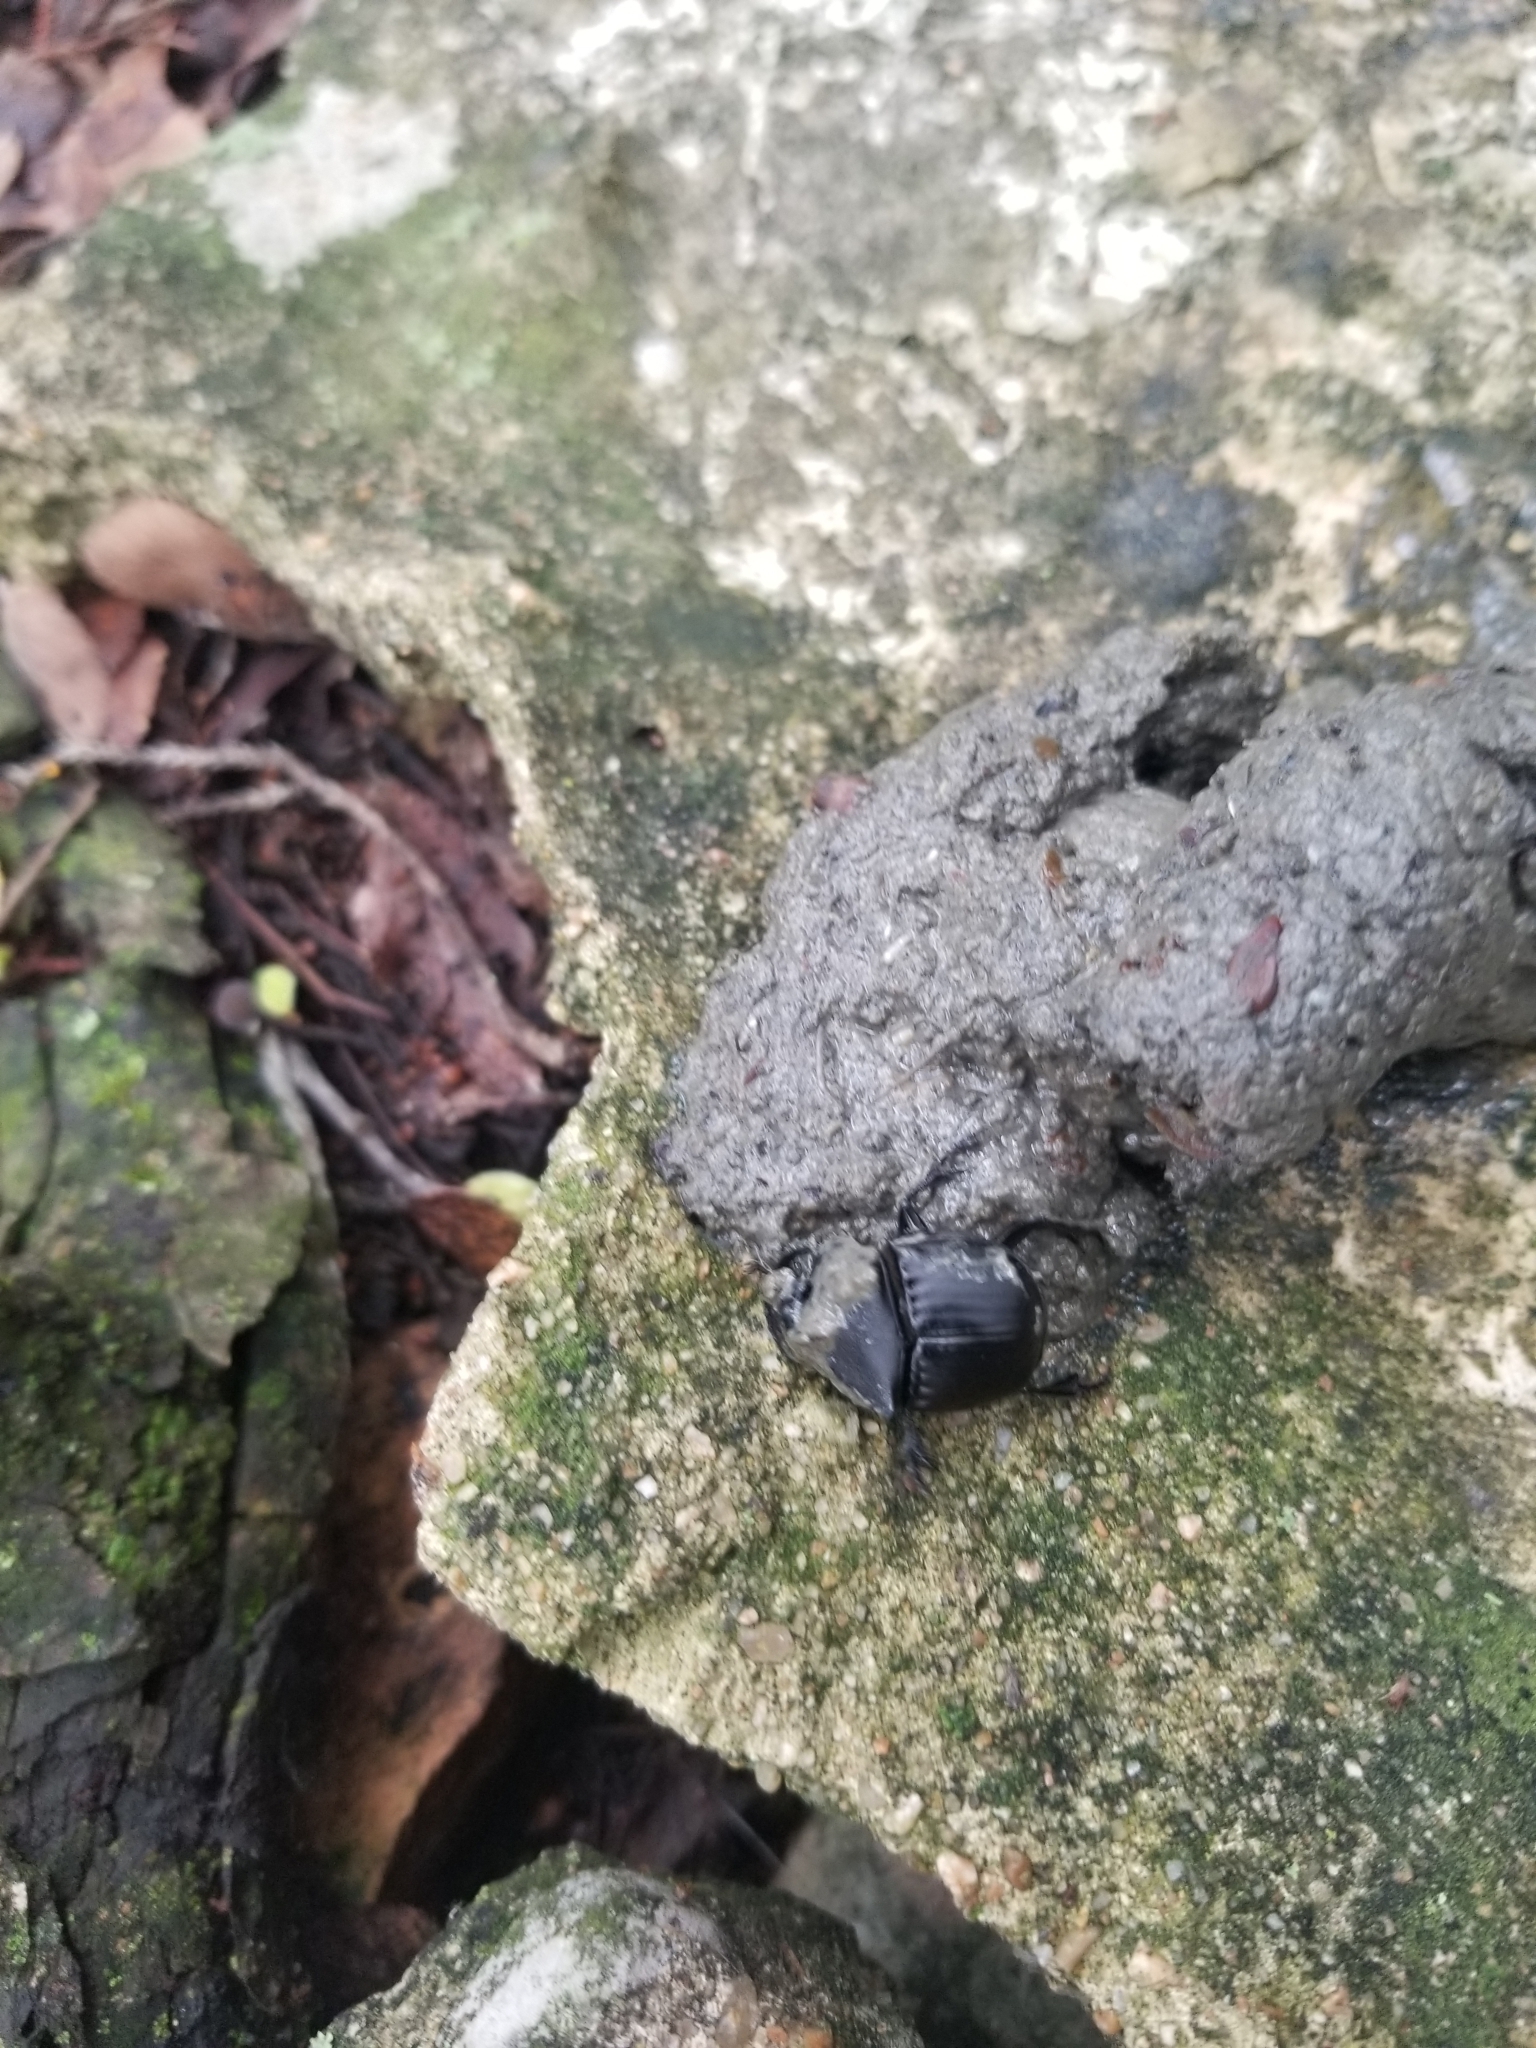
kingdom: Animalia
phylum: Arthropoda
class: Insecta
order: Coleoptera
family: Scarabaeidae
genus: Phanaeus
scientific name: Phanaeus texensis
